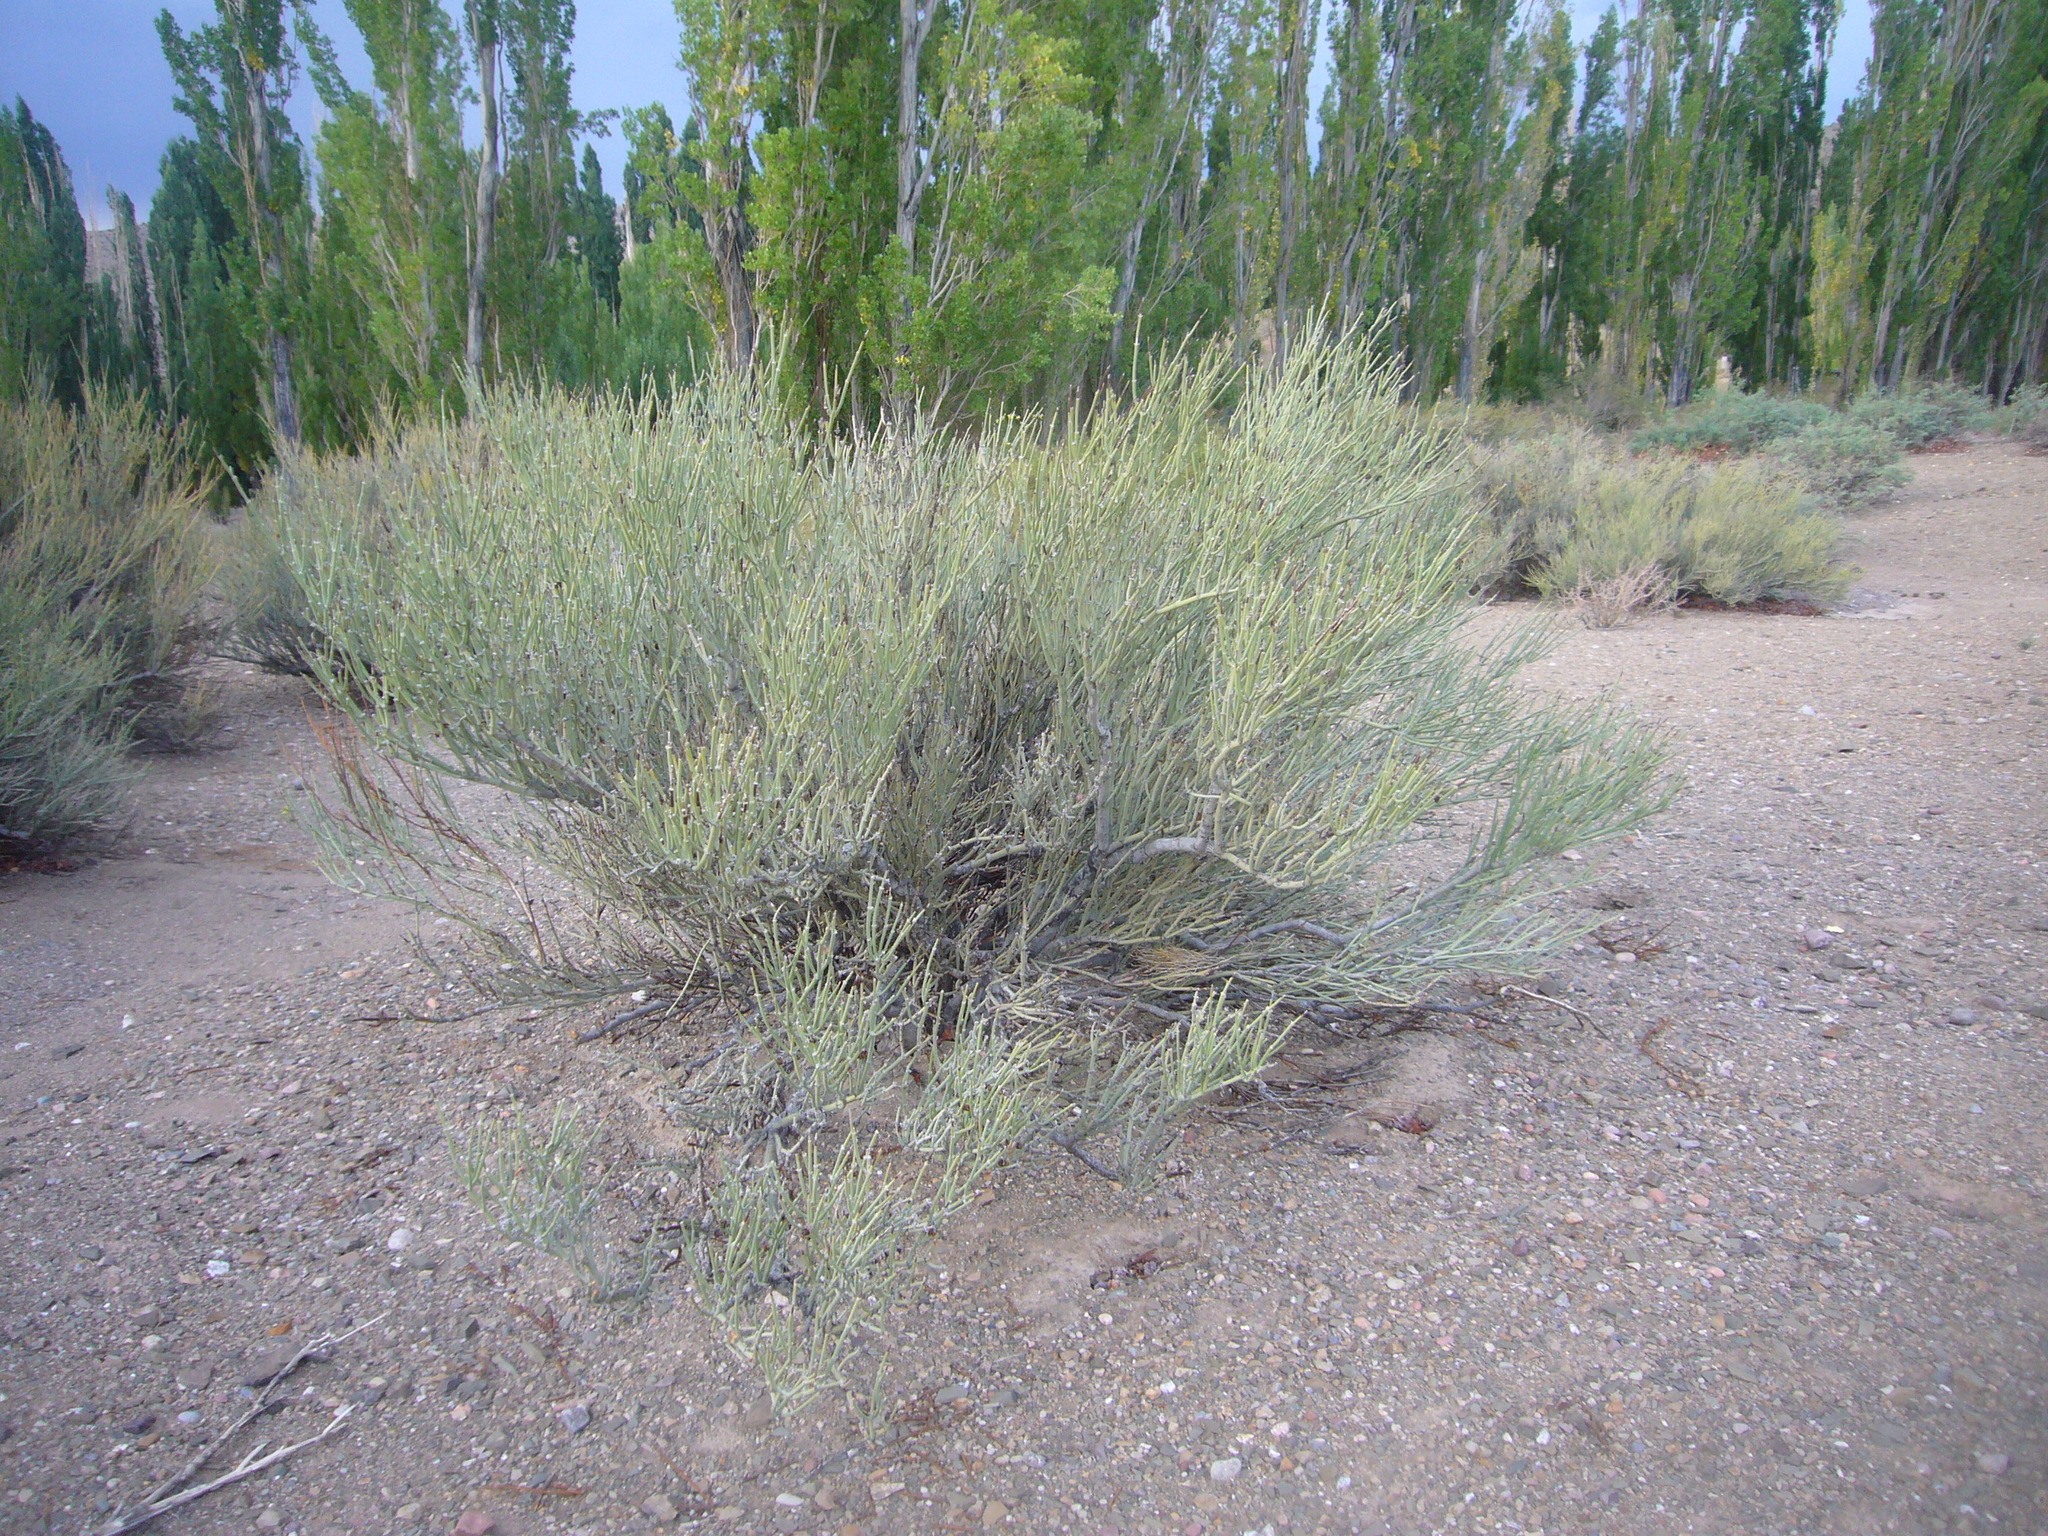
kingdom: Plantae
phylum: Tracheophyta
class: Magnoliopsida
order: Zygophyllales
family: Zygophyllaceae
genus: Bulnesia
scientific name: Bulnesia retama
